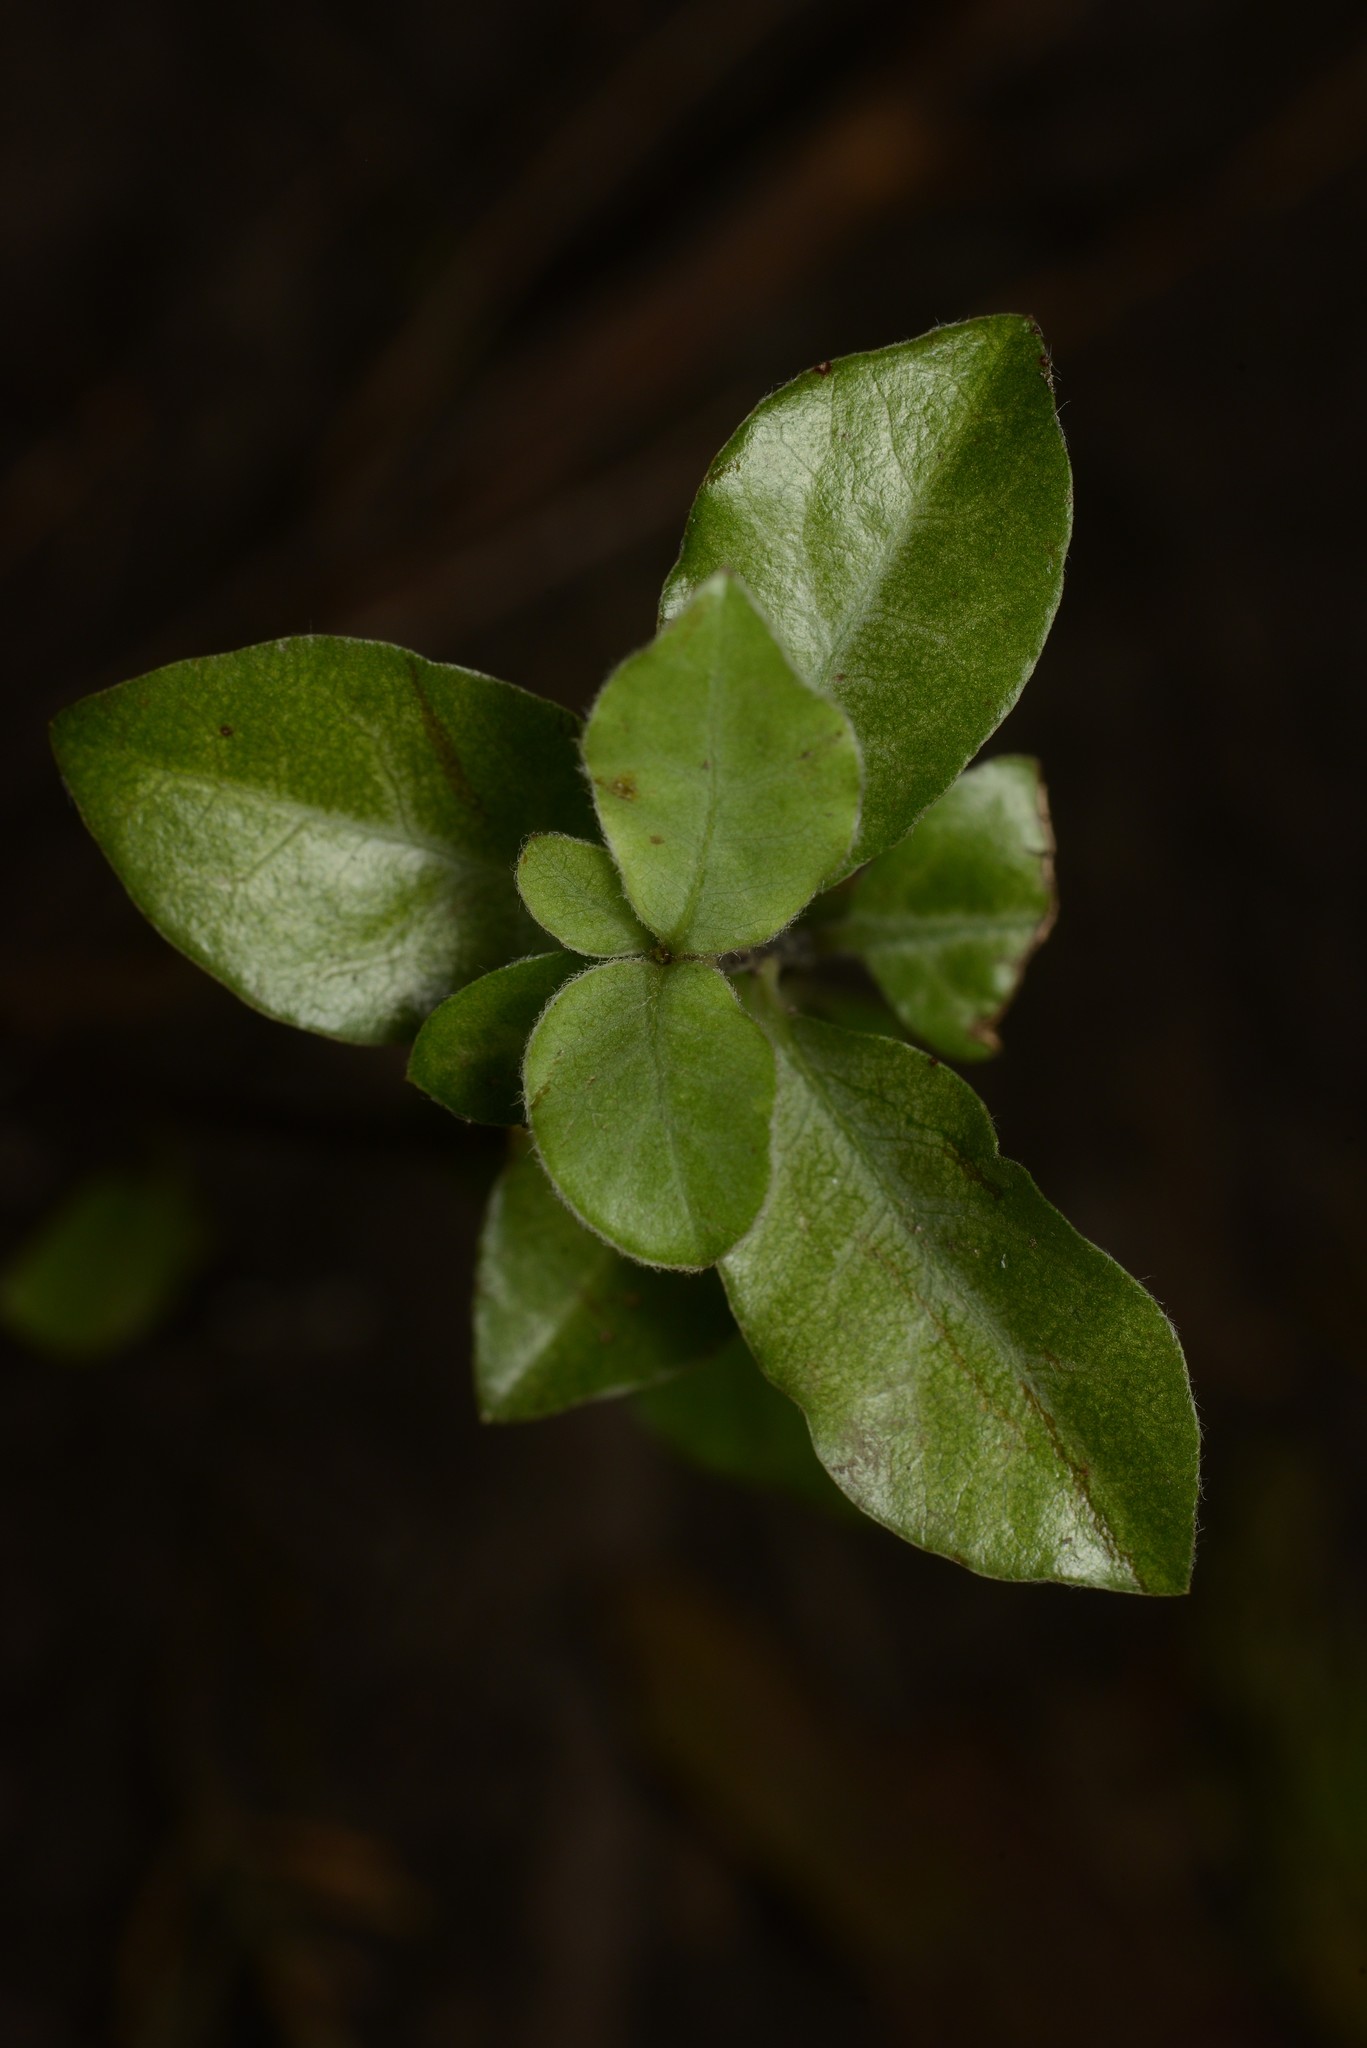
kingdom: Plantae
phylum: Tracheophyta
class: Magnoliopsida
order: Apiales
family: Pittosporaceae
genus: Pittosporum
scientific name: Pittosporum tenuifolium
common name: Kohuhu
